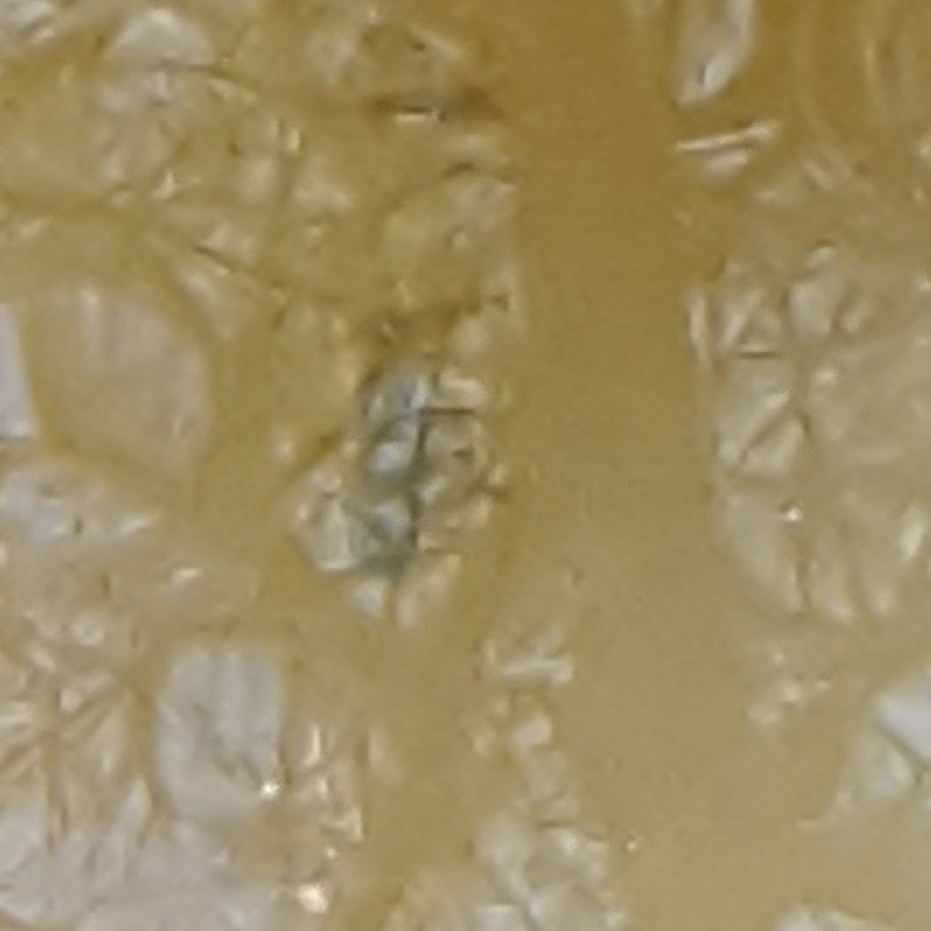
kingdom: Animalia
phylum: Chordata
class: Amphibia
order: Caudata
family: Salamandridae
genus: Notophthalmus
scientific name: Notophthalmus viridescens
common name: Eastern newt
